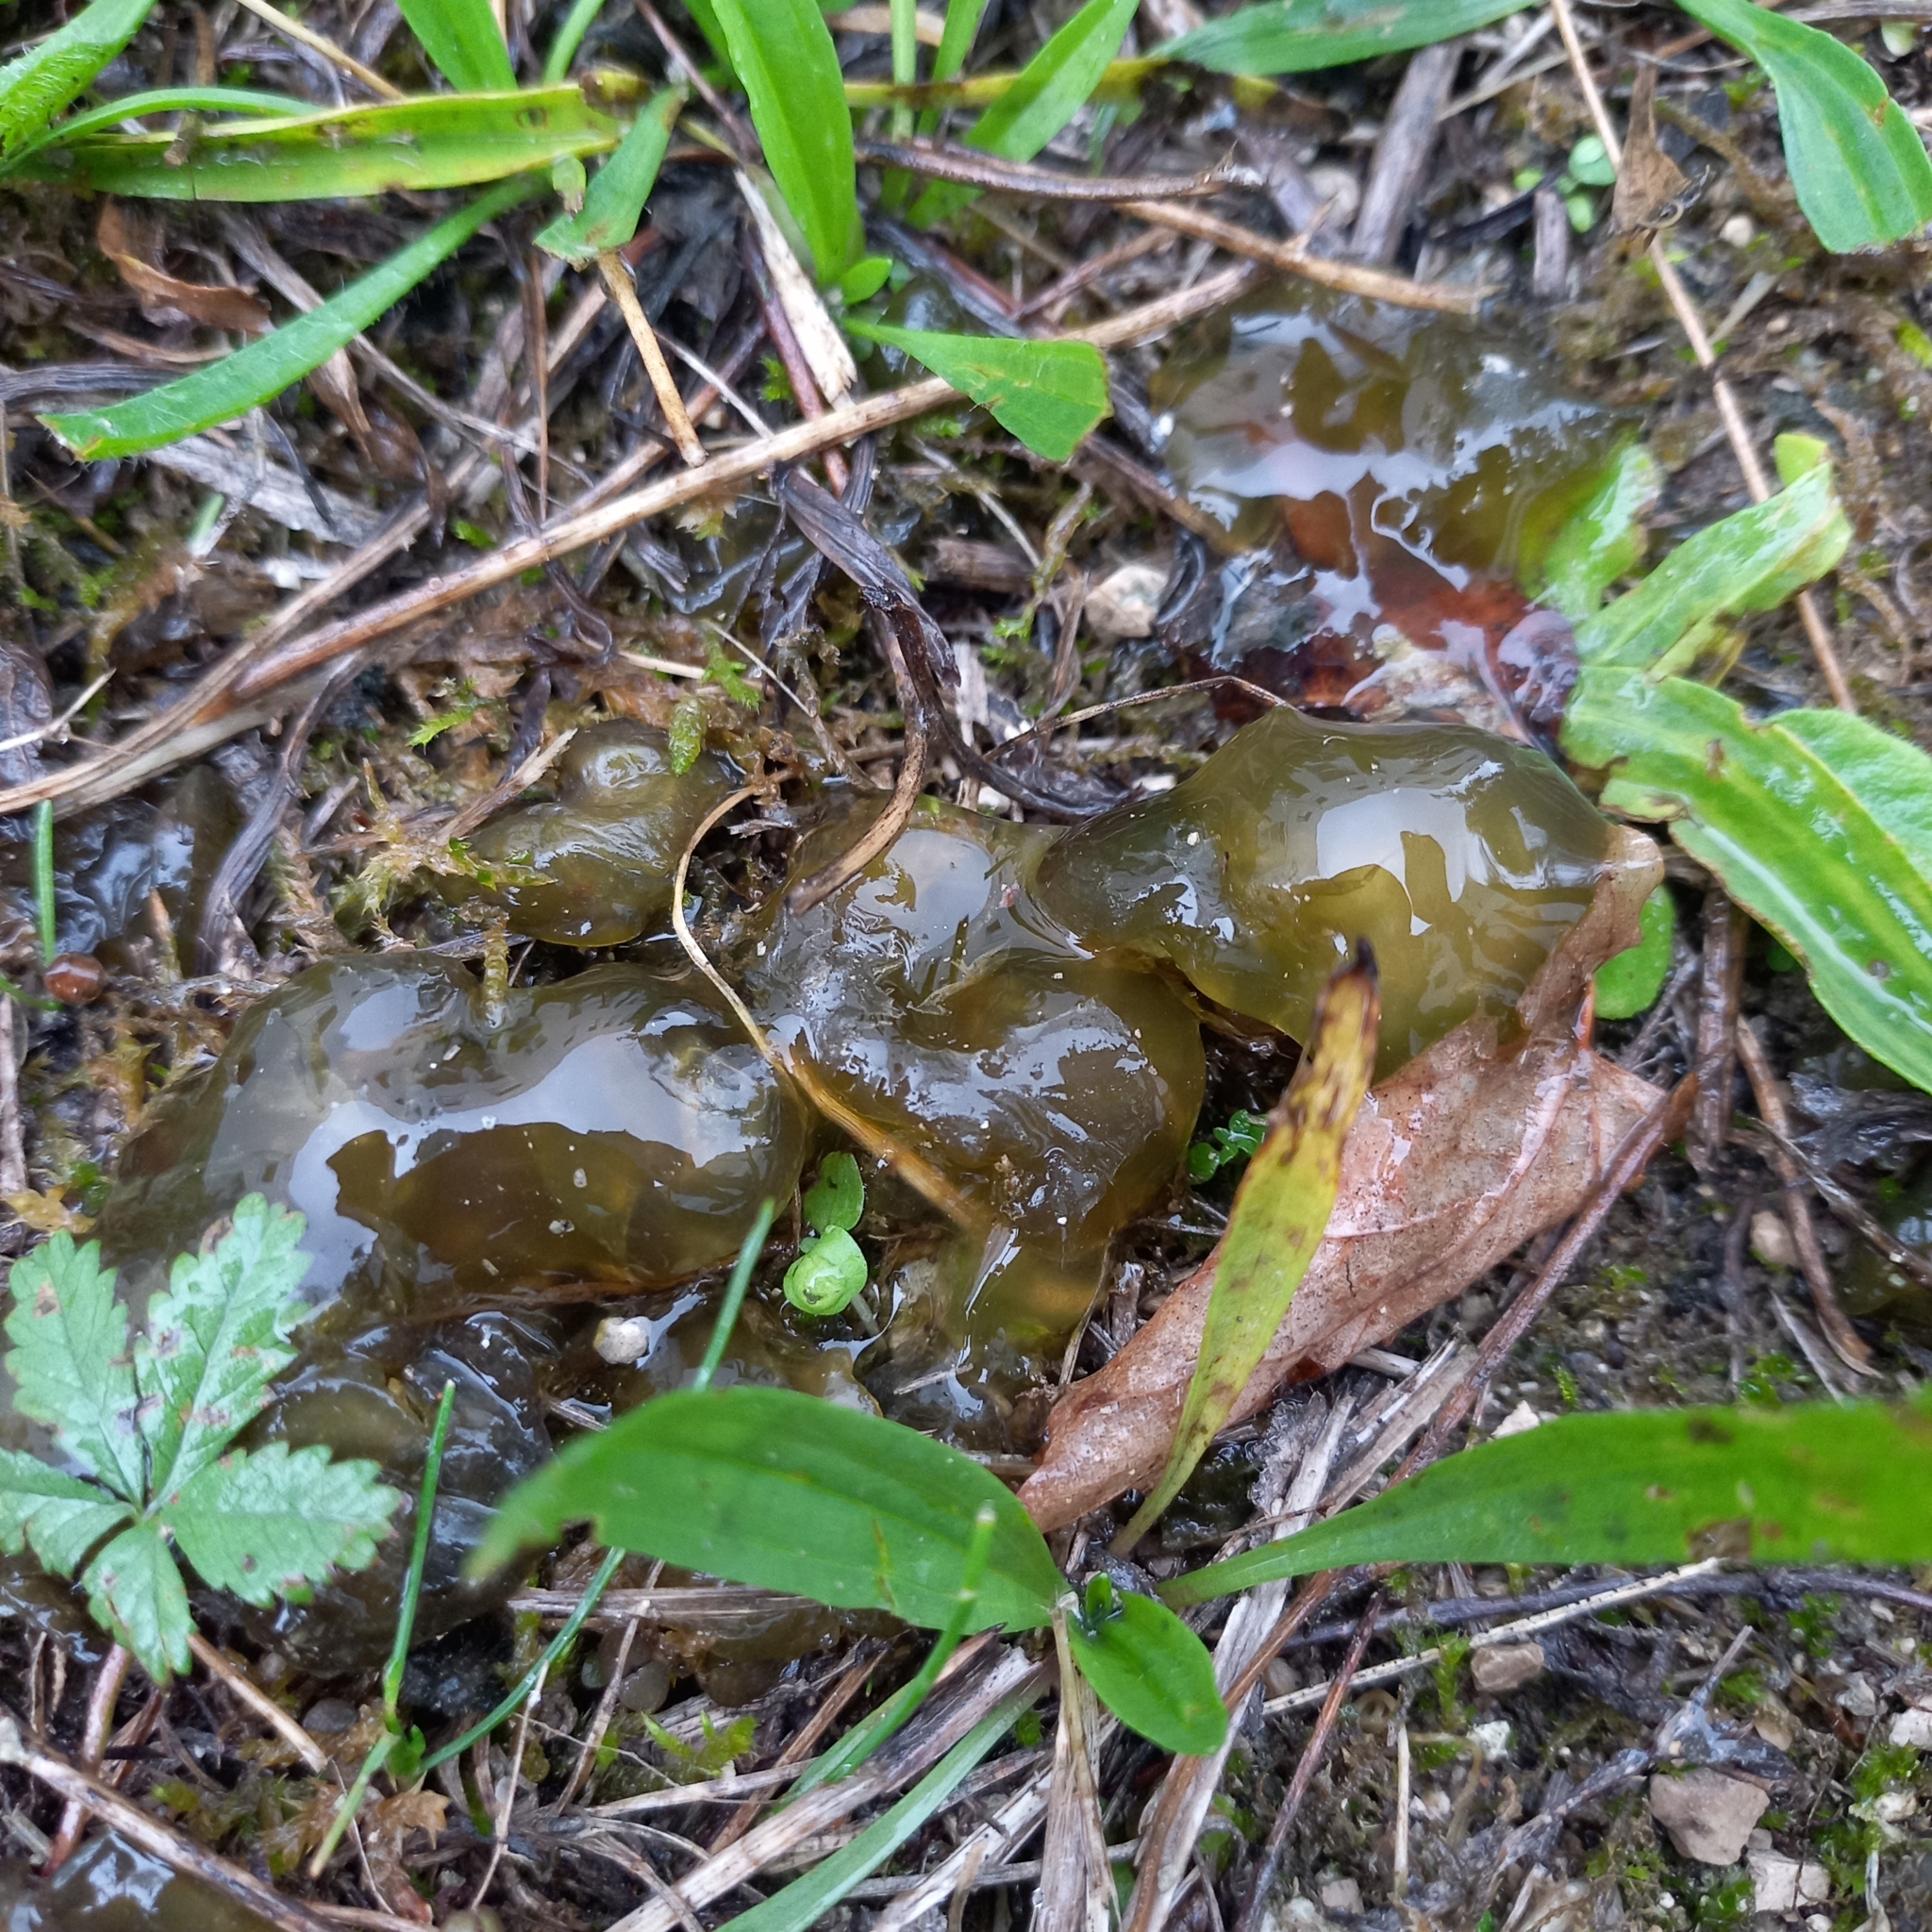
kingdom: Bacteria
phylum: Cyanobacteria
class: Cyanobacteriia
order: Cyanobacteriales
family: Nostocaceae
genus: Nostoc
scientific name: Nostoc commune
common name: Star jelly
